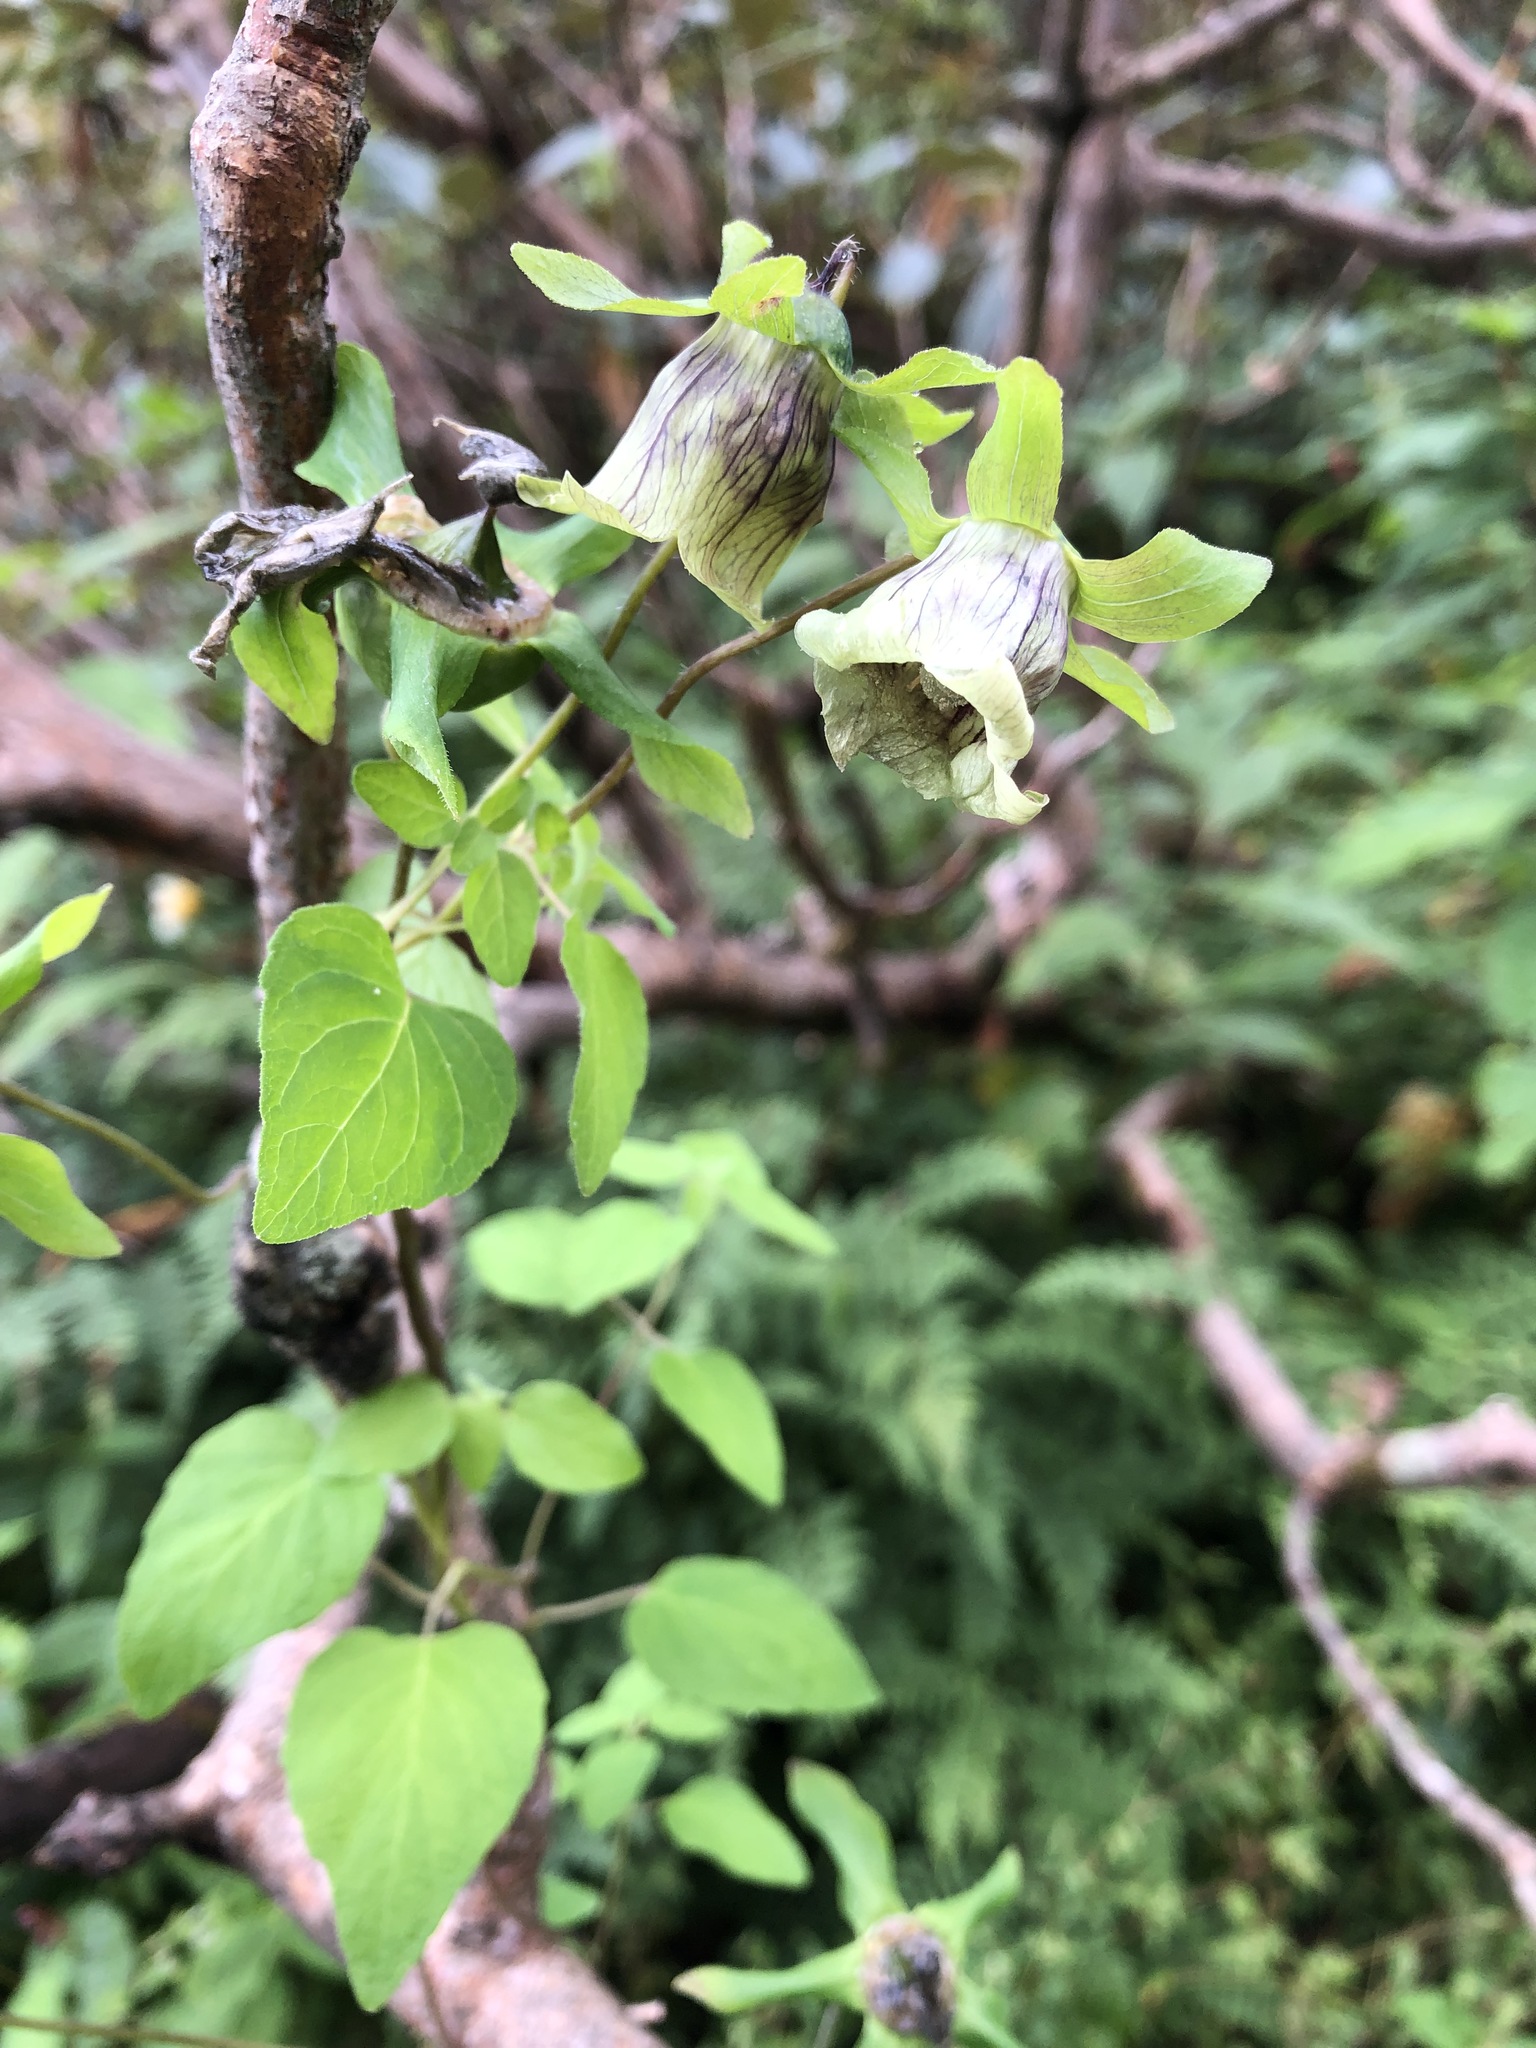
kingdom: Plantae
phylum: Tracheophyta
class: Magnoliopsida
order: Asterales
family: Campanulaceae
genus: Codonopsis
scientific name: Codonopsis rotundifolia
